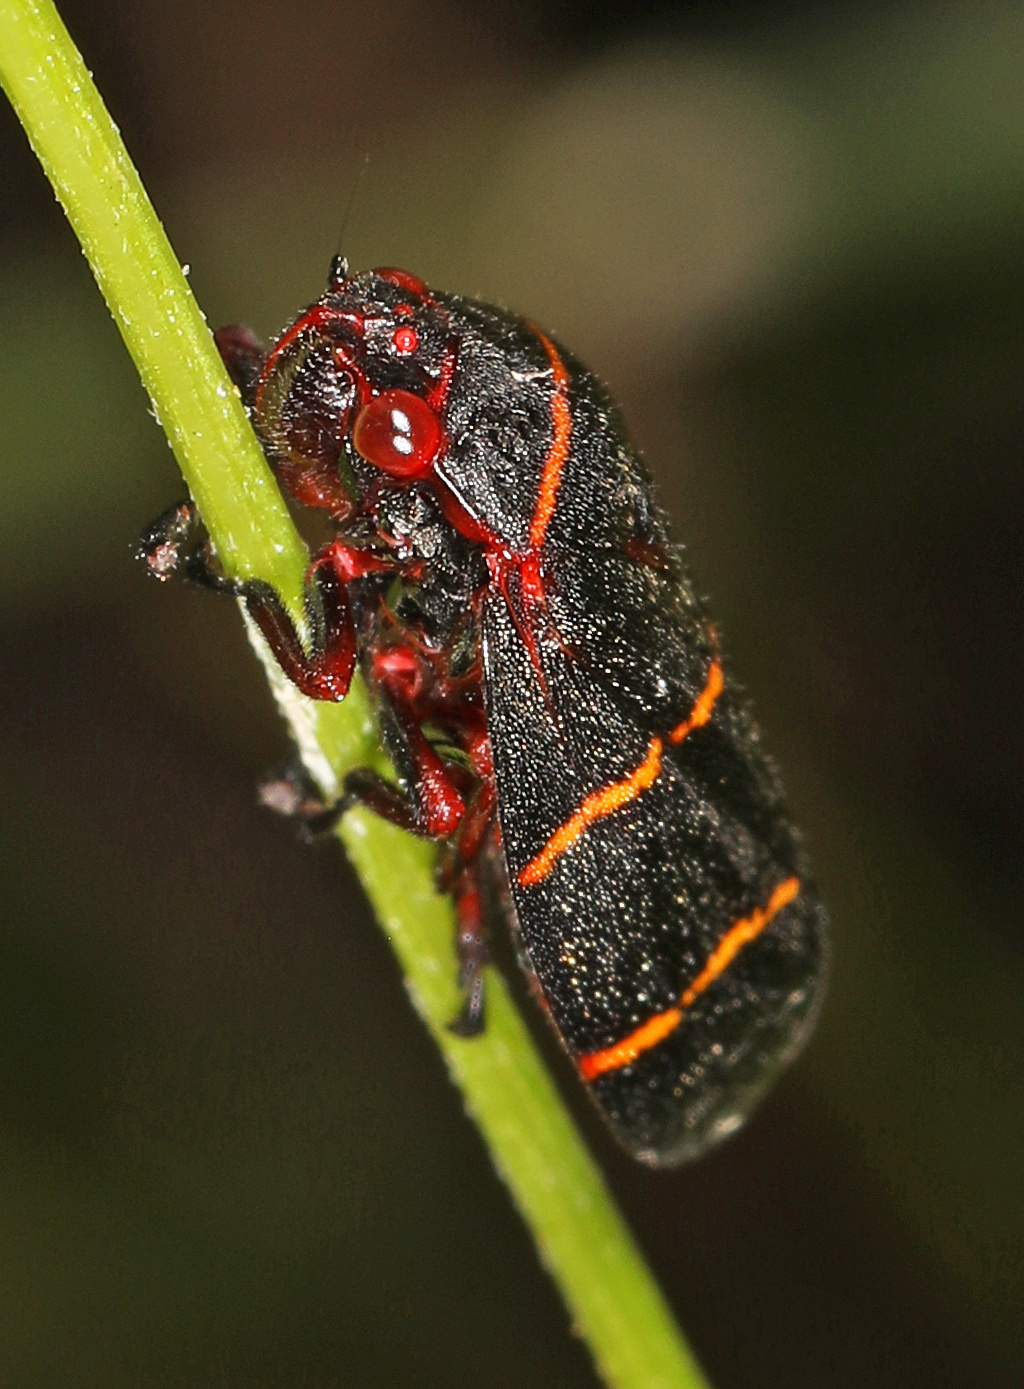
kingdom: Animalia
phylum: Arthropoda
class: Insecta
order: Hemiptera
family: Cercopidae
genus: Prosapia
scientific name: Prosapia bicincta
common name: Twolined spittlebug
